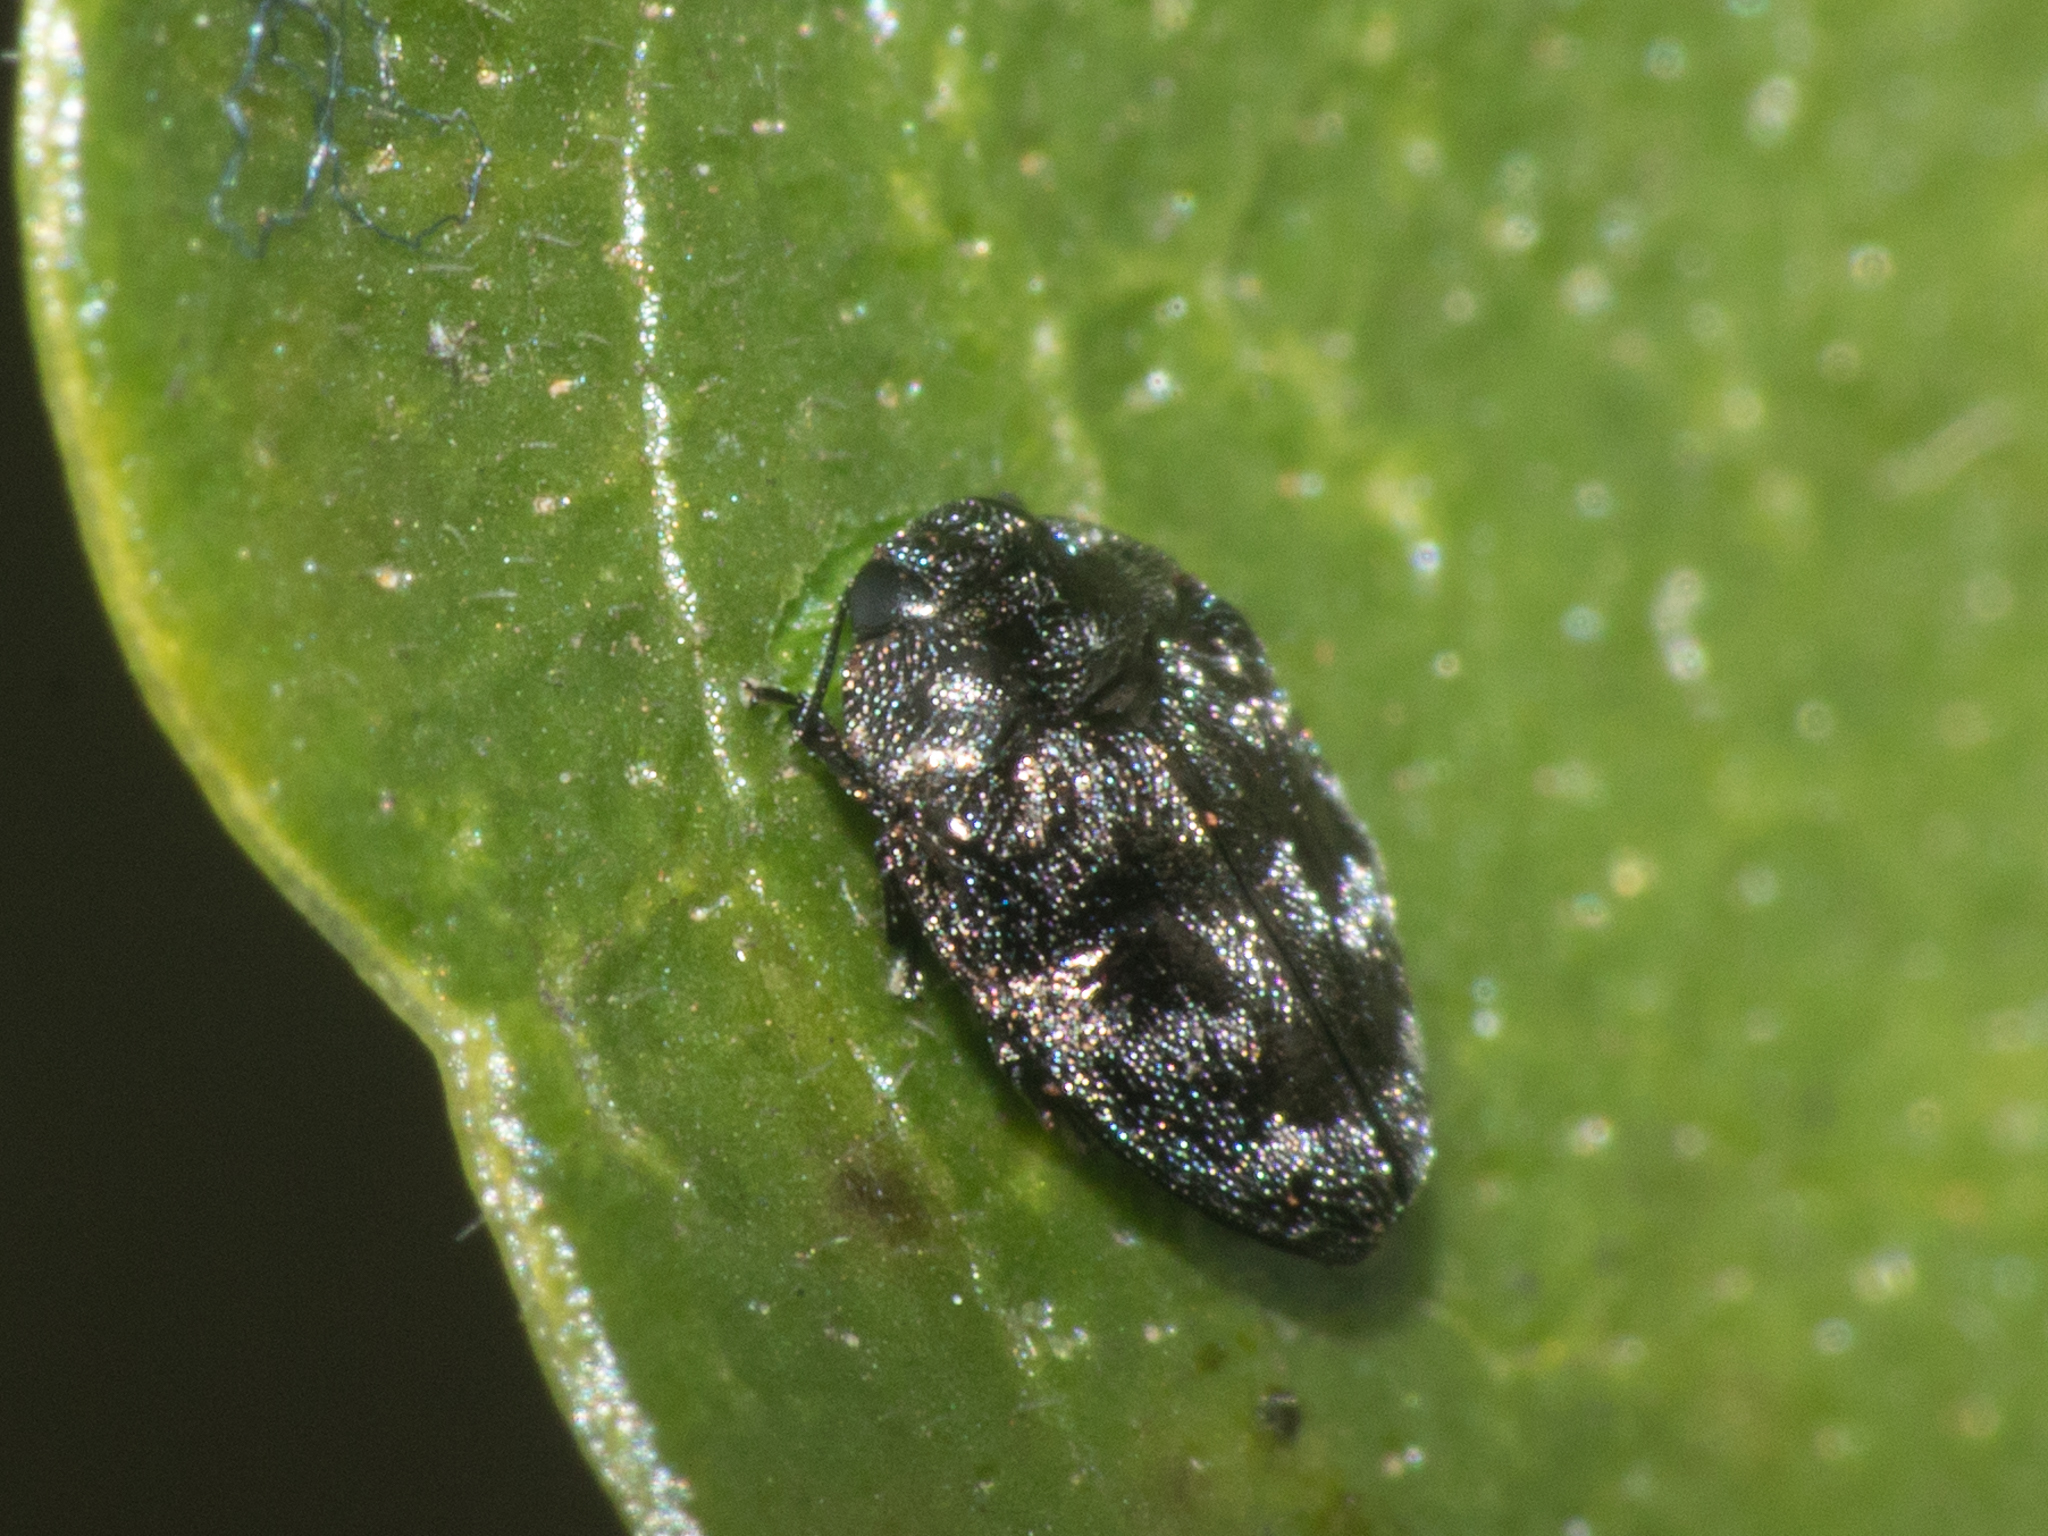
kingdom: Animalia
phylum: Arthropoda
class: Insecta
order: Coleoptera
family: Buprestidae
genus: Euhylaeogena
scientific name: Euhylaeogena
